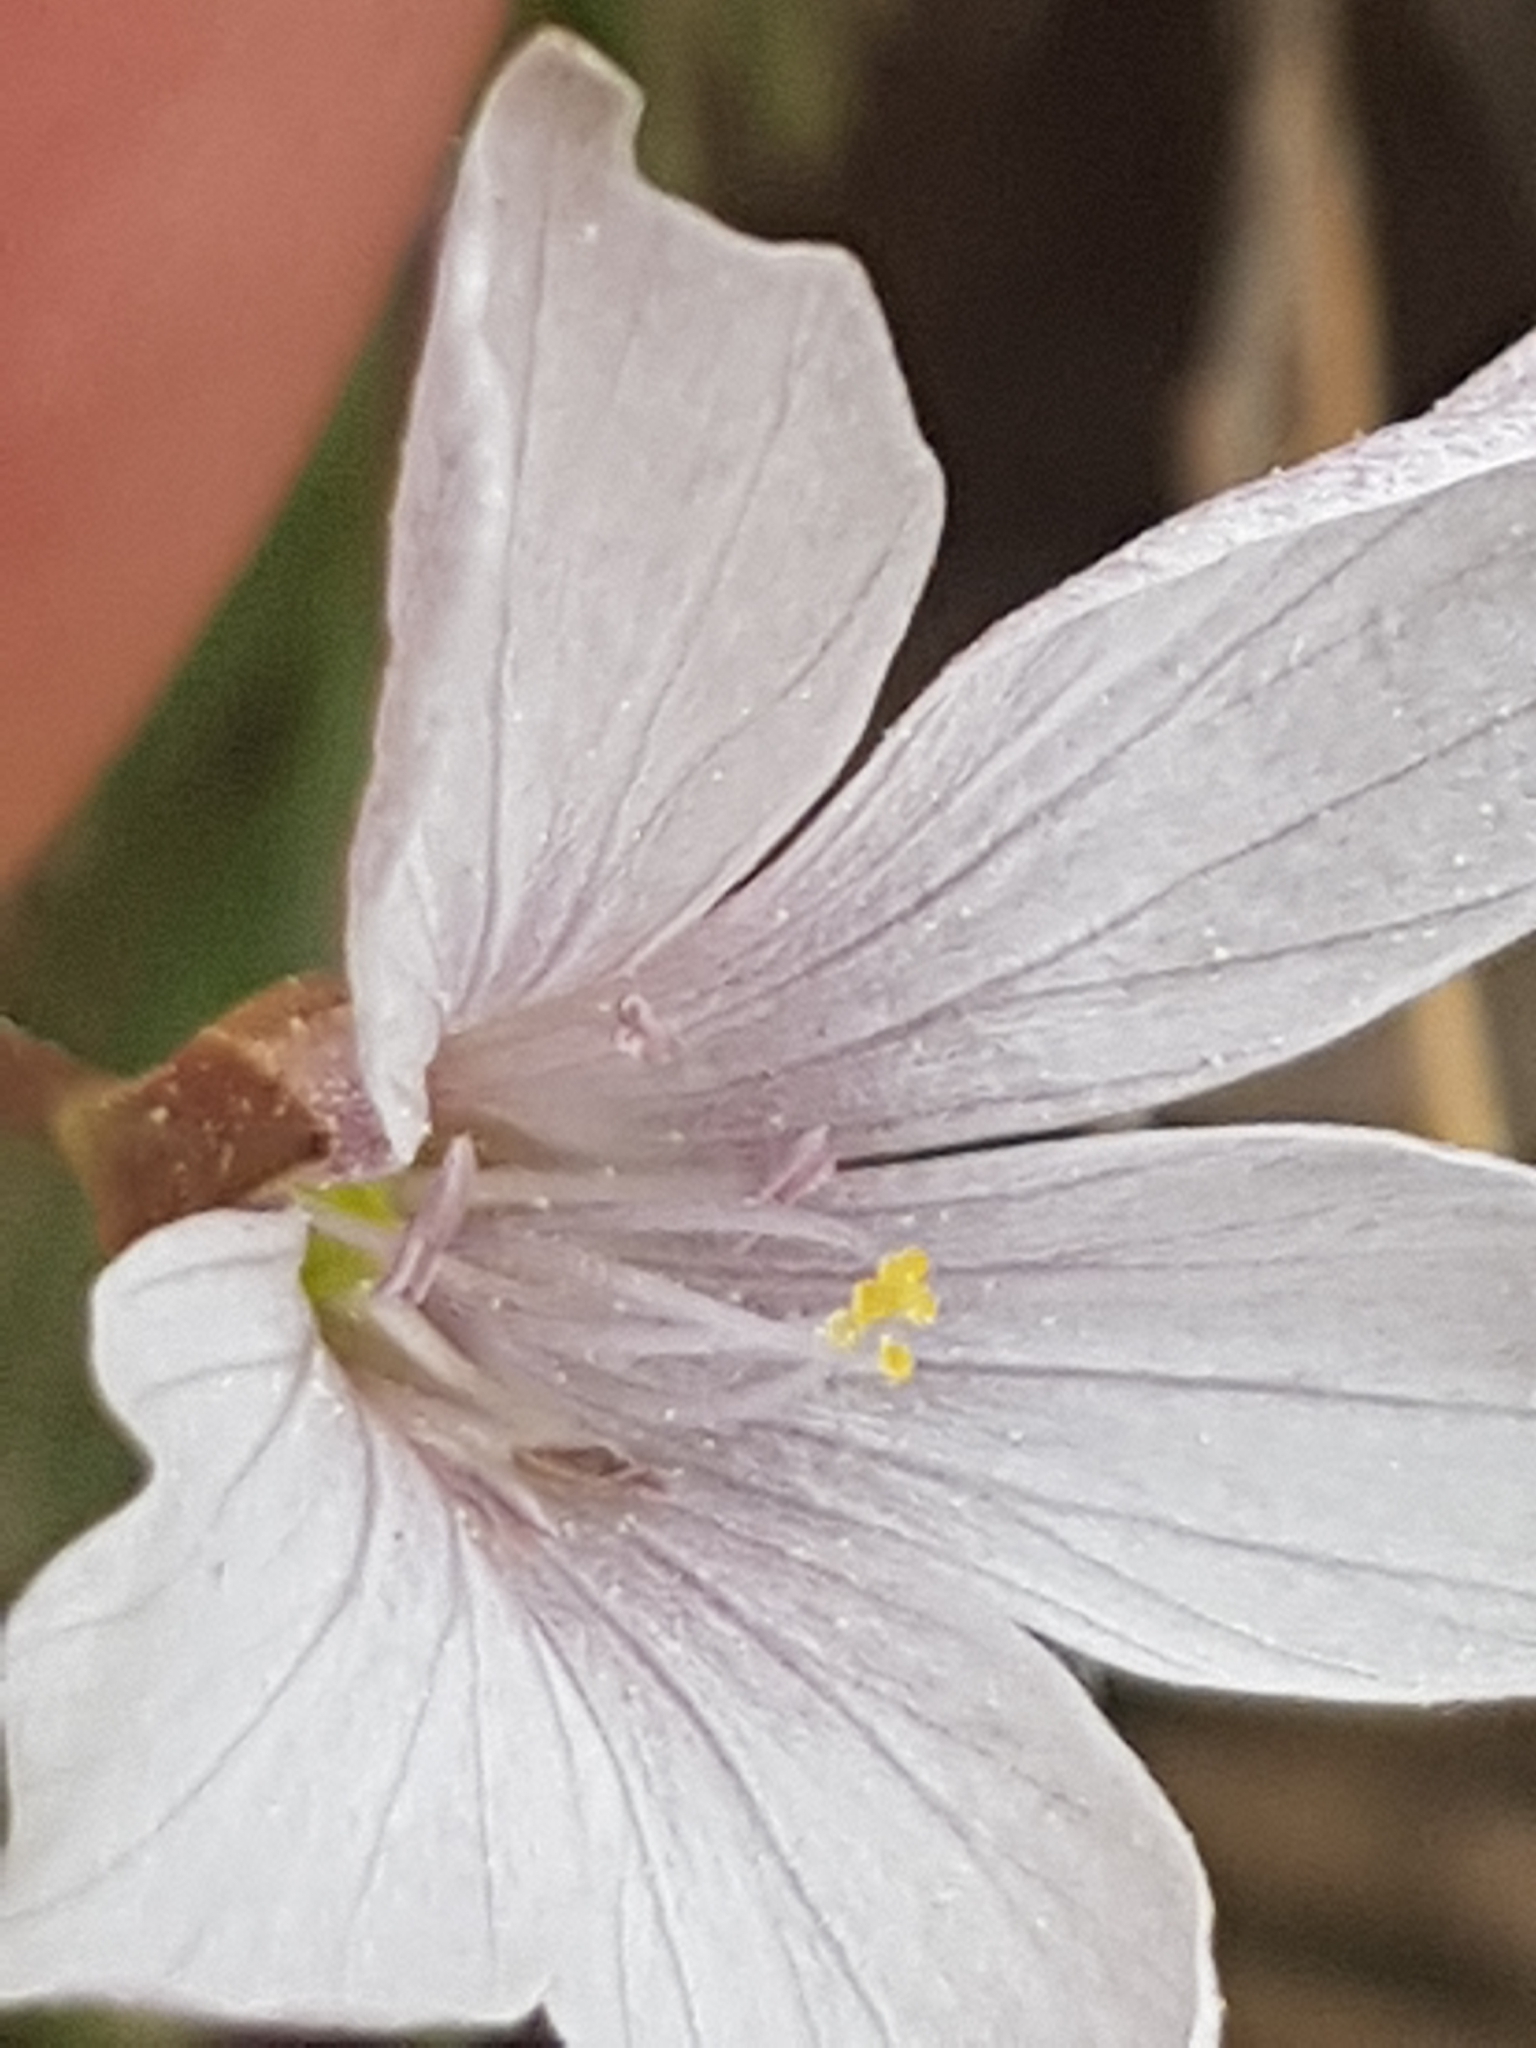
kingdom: Plantae
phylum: Tracheophyta
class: Magnoliopsida
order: Malpighiales
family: Linaceae
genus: Linum
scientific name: Linum tenuifolium
